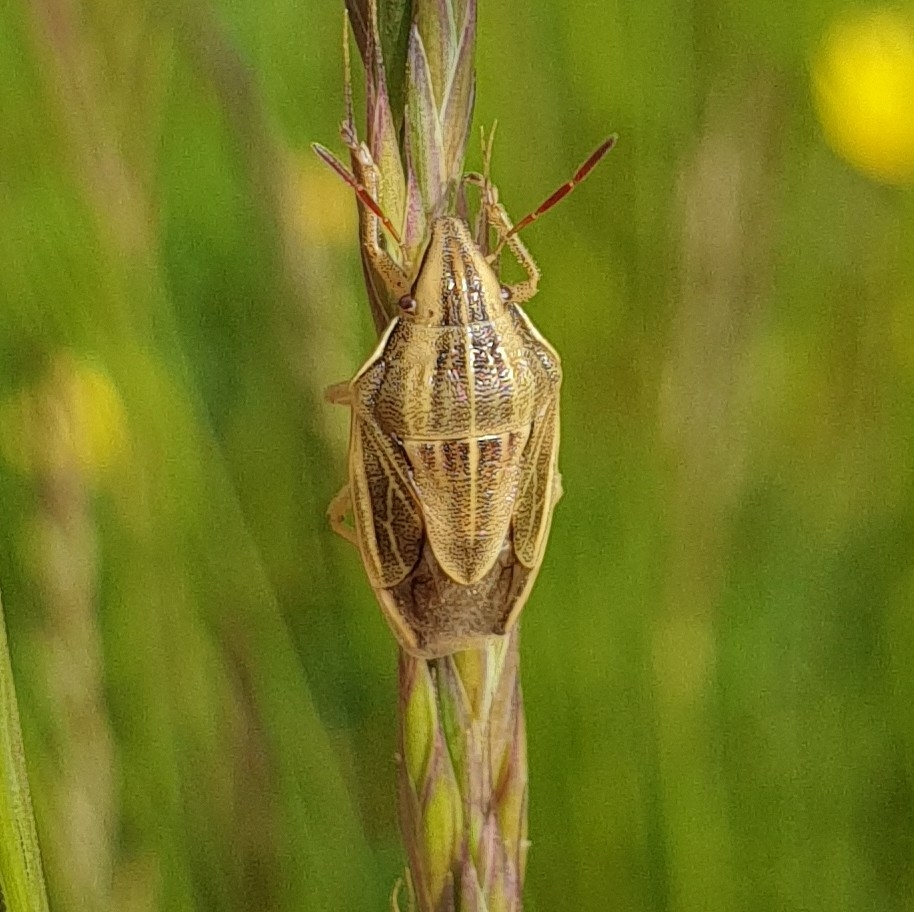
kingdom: Animalia
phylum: Arthropoda
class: Insecta
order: Hemiptera
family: Pentatomidae
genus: Aelia
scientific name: Aelia acuminata
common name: Bishop's mitre
